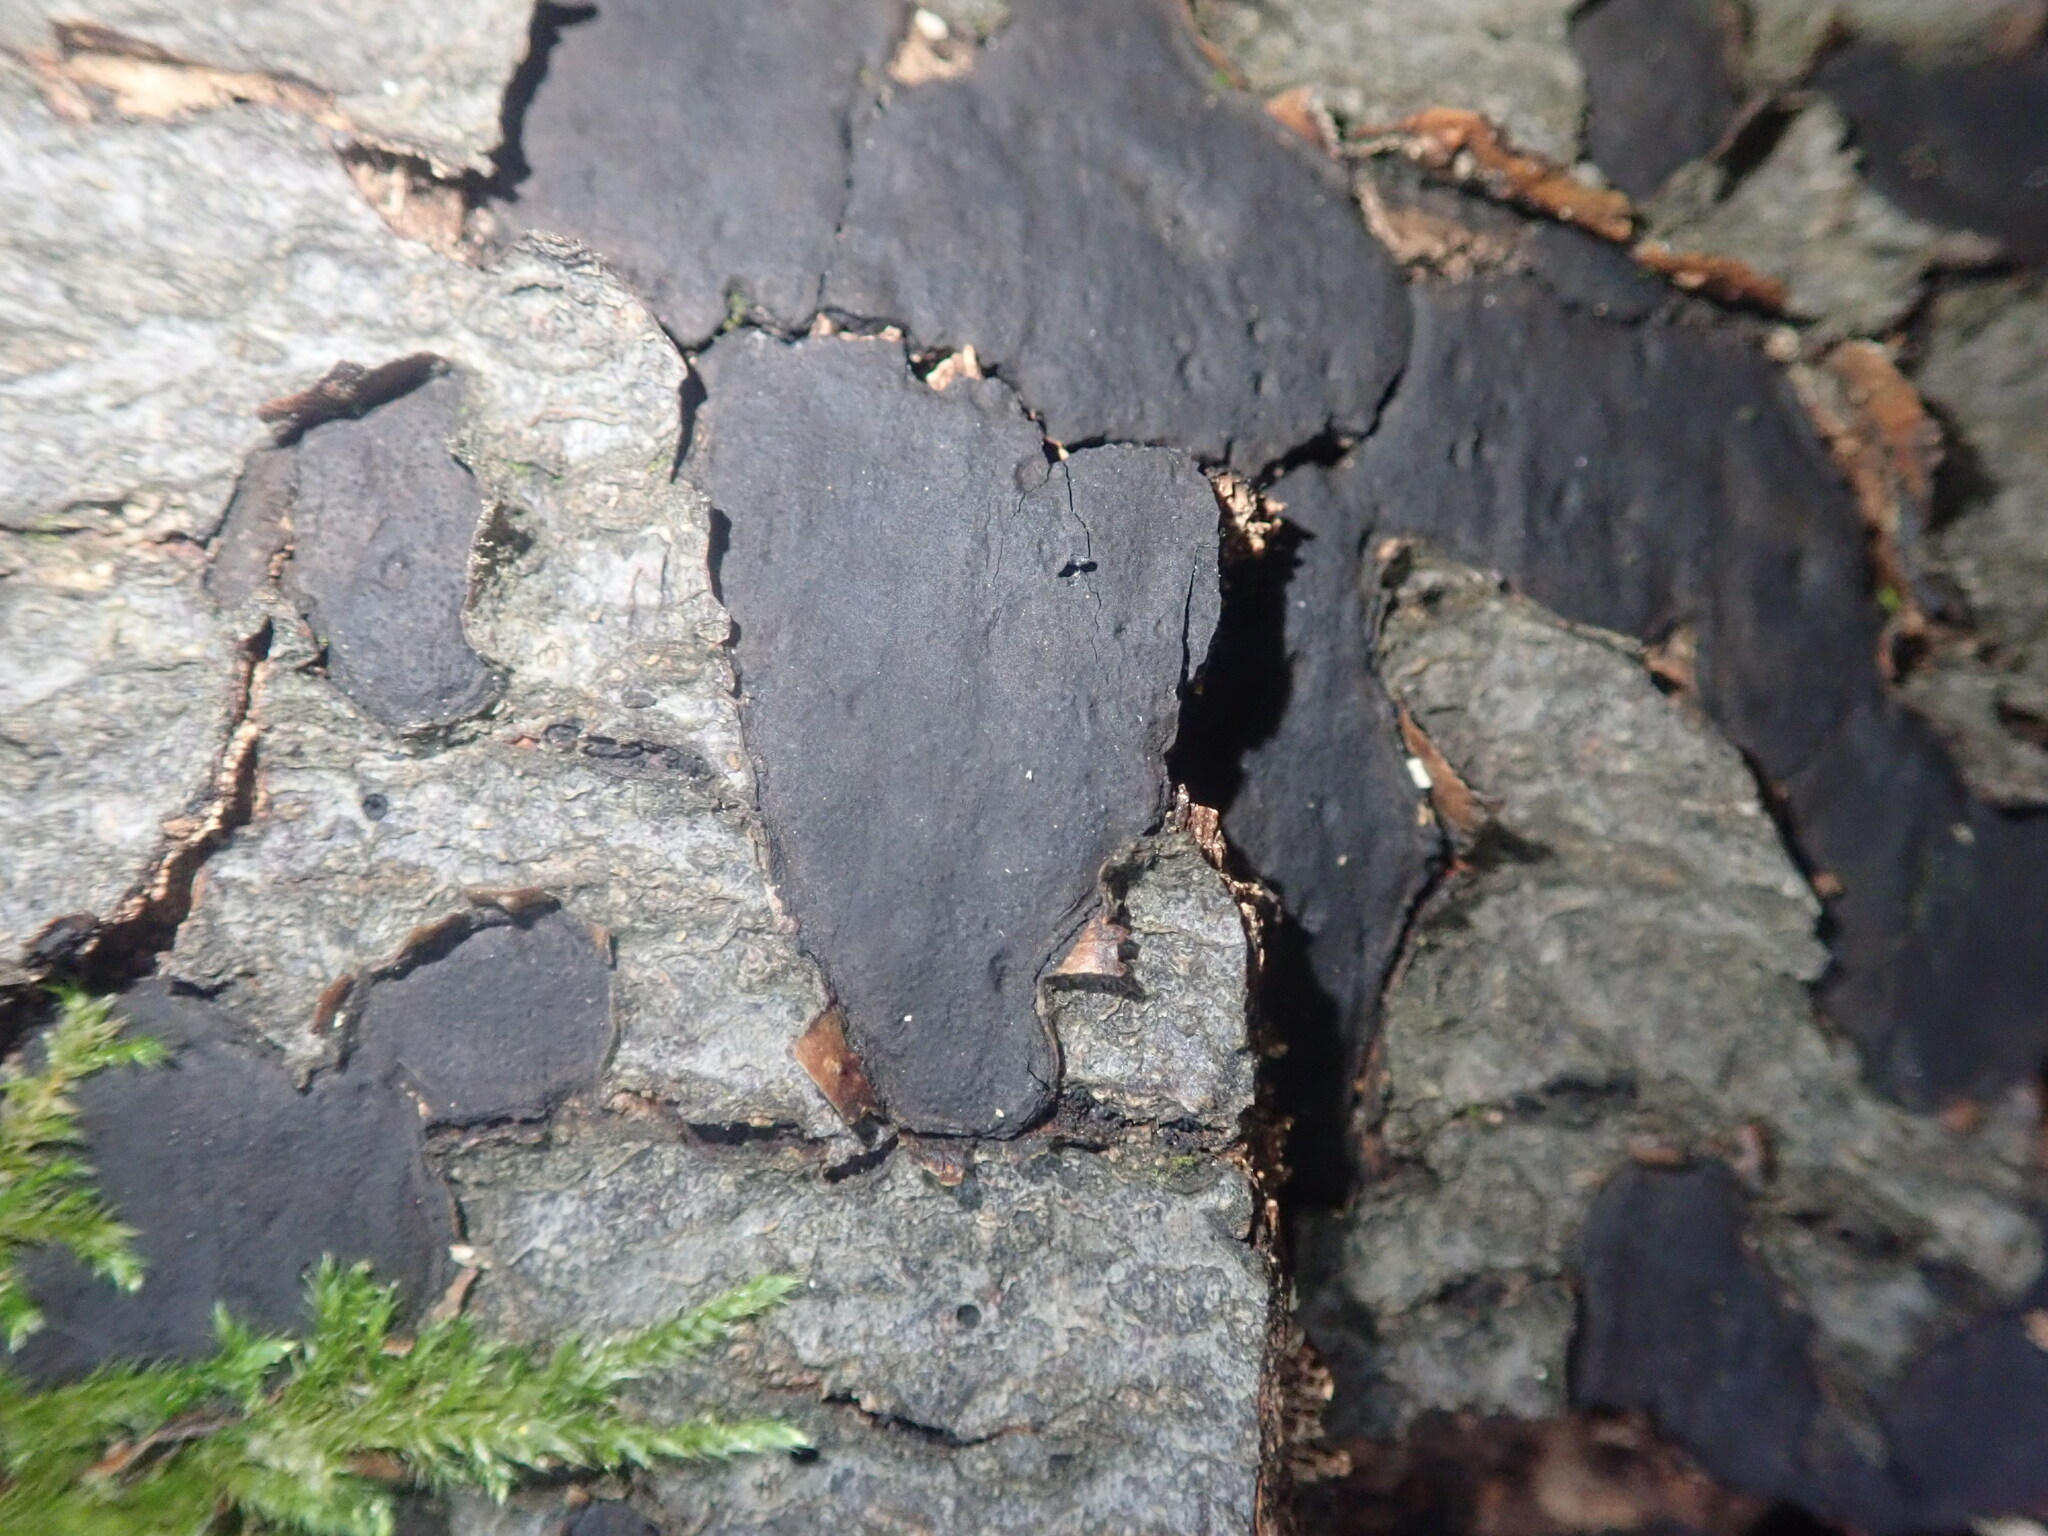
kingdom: Fungi
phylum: Ascomycota
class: Sordariomycetes
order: Xylariales
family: Diatrypaceae
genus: Diatrype
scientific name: Diatrype stigma
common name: Common tarcrust
